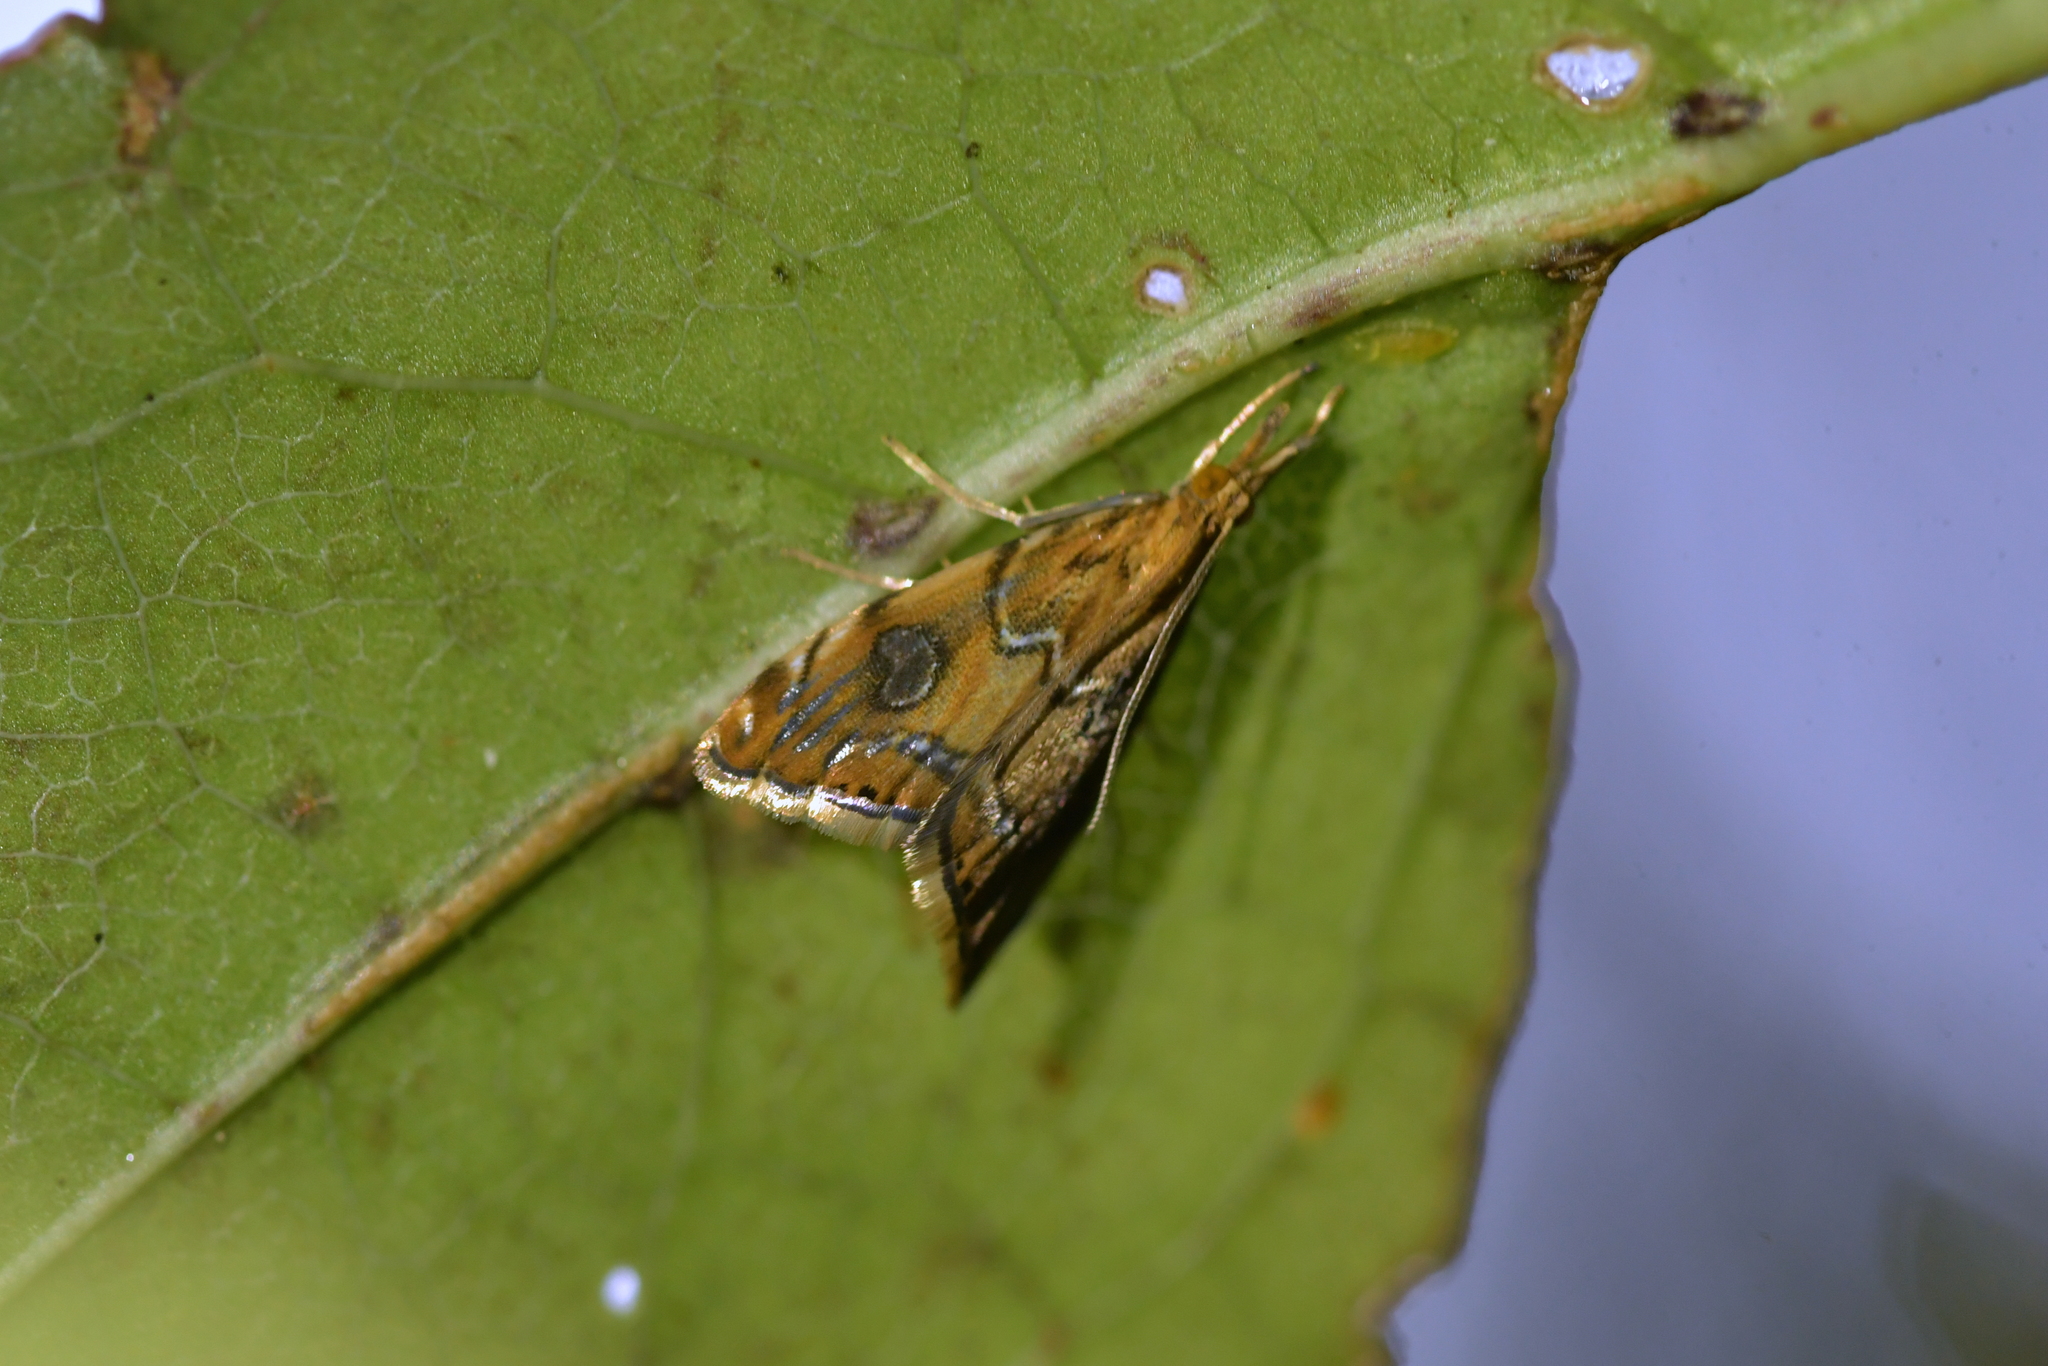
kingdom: Animalia
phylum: Arthropoda
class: Insecta
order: Lepidoptera
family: Crambidae
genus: Glaucocharis
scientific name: Glaucocharis leucoxantha
